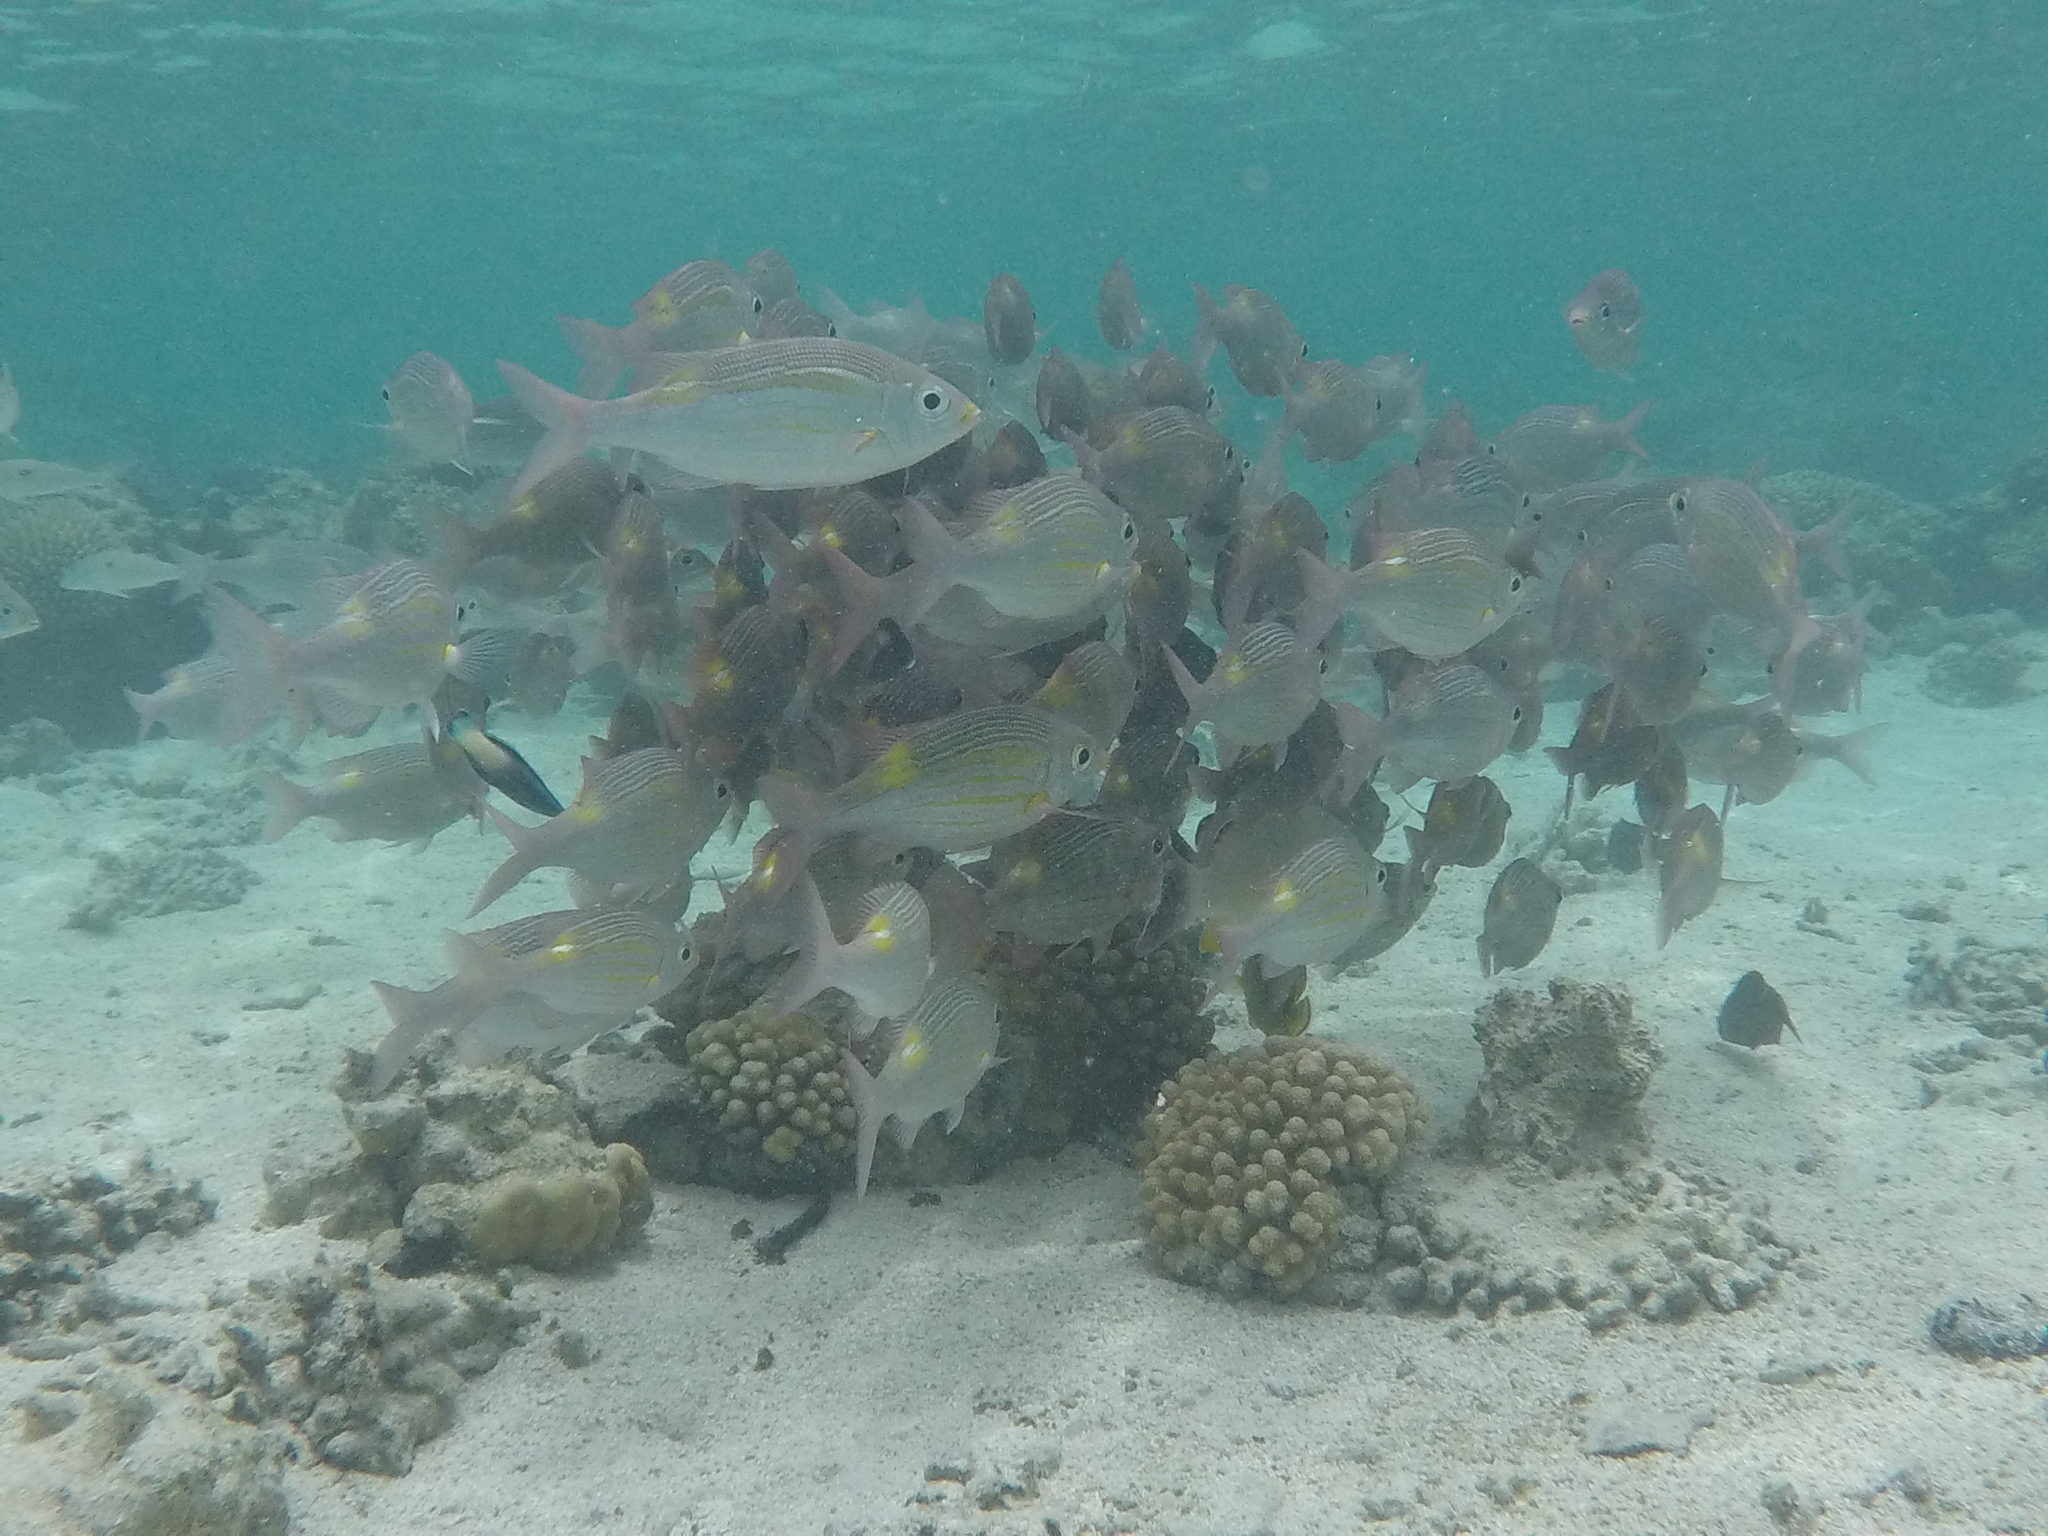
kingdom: Animalia
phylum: Chordata
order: Perciformes
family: Lethrinidae
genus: Gnathodentex
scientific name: Gnathodentex aureolineatus
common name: Gold-lined sea bream
